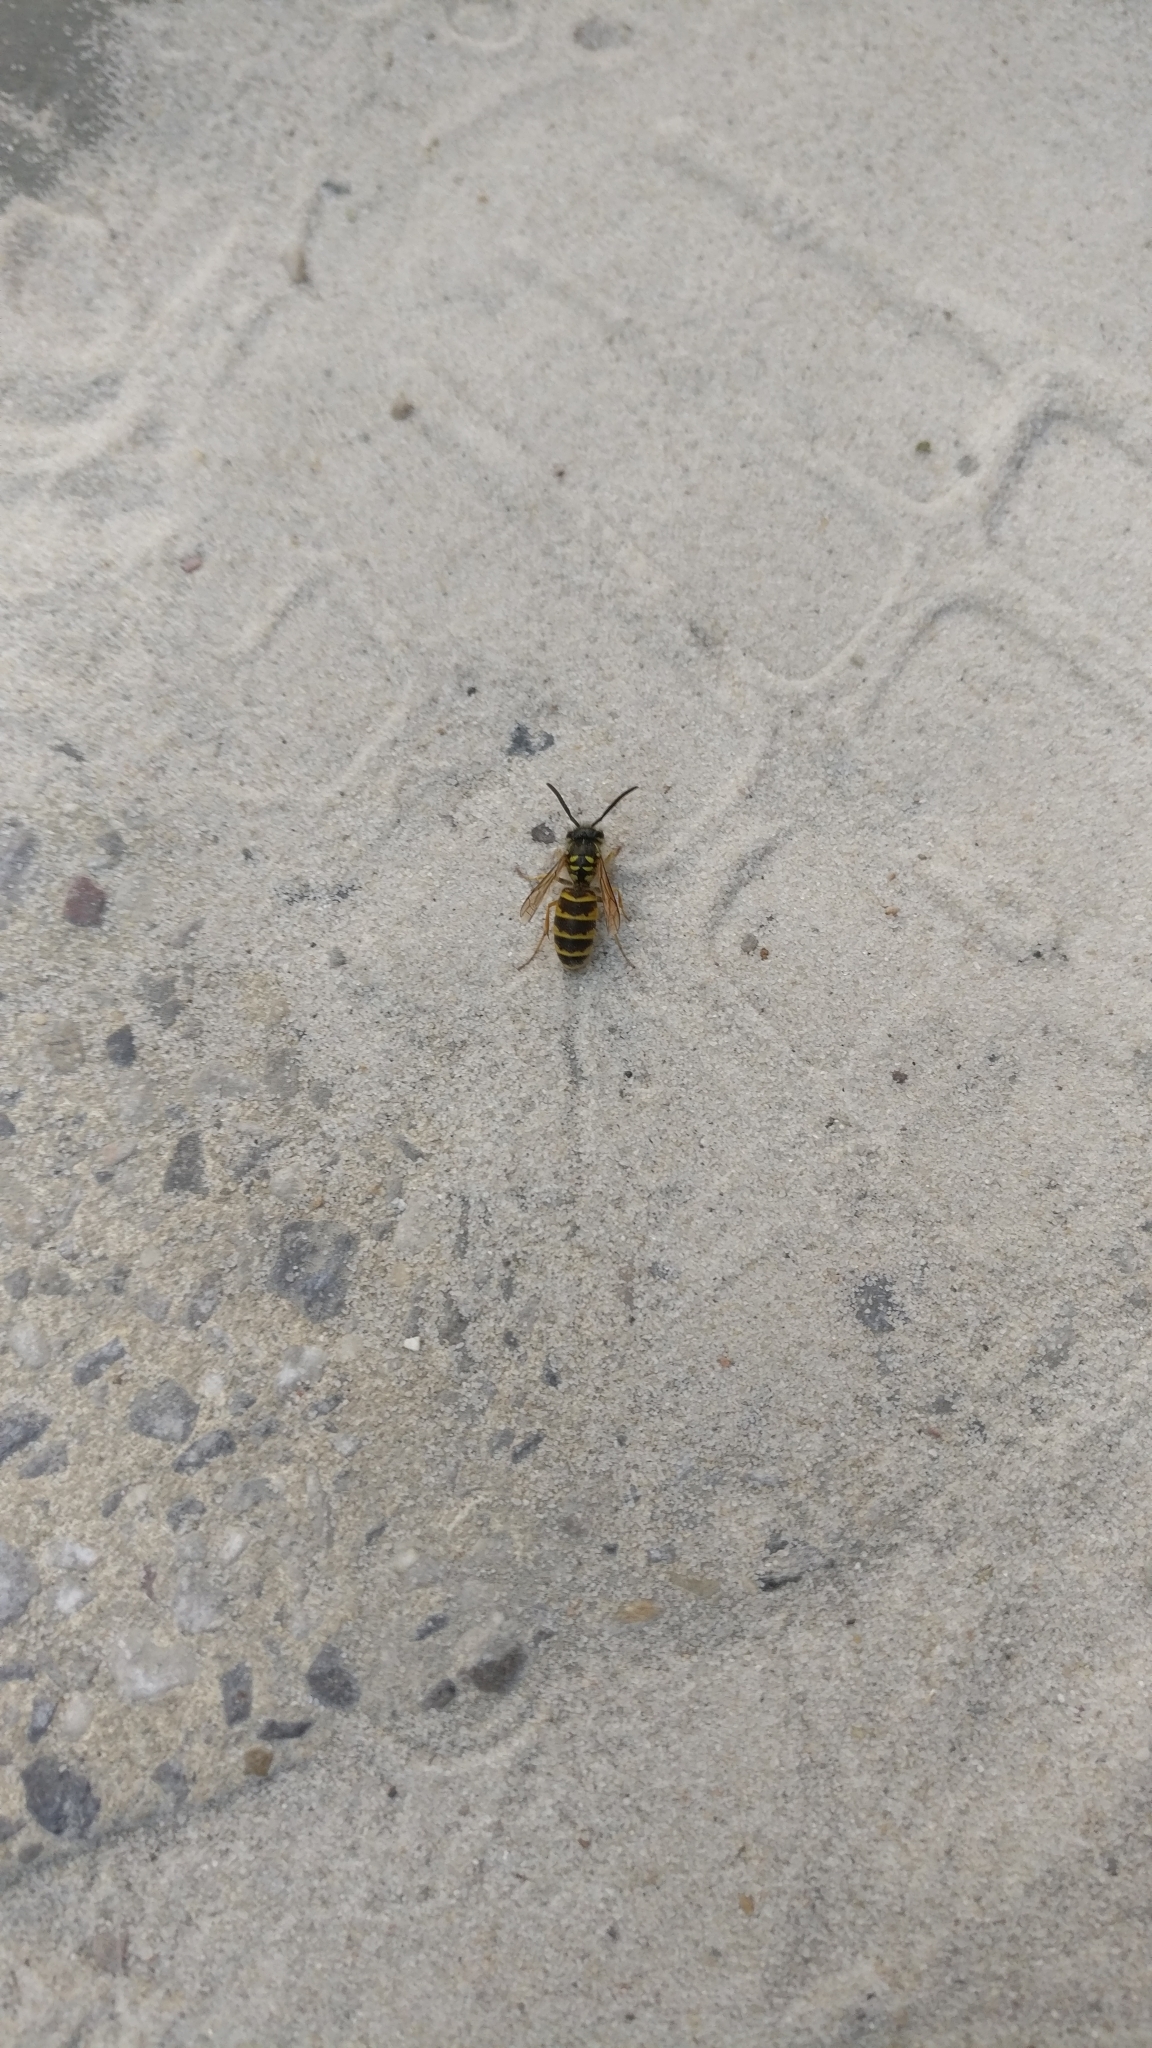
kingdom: Animalia
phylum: Arthropoda
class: Insecta
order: Hymenoptera
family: Vespidae
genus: Vespula
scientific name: Vespula vulgaris
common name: Common wasp
